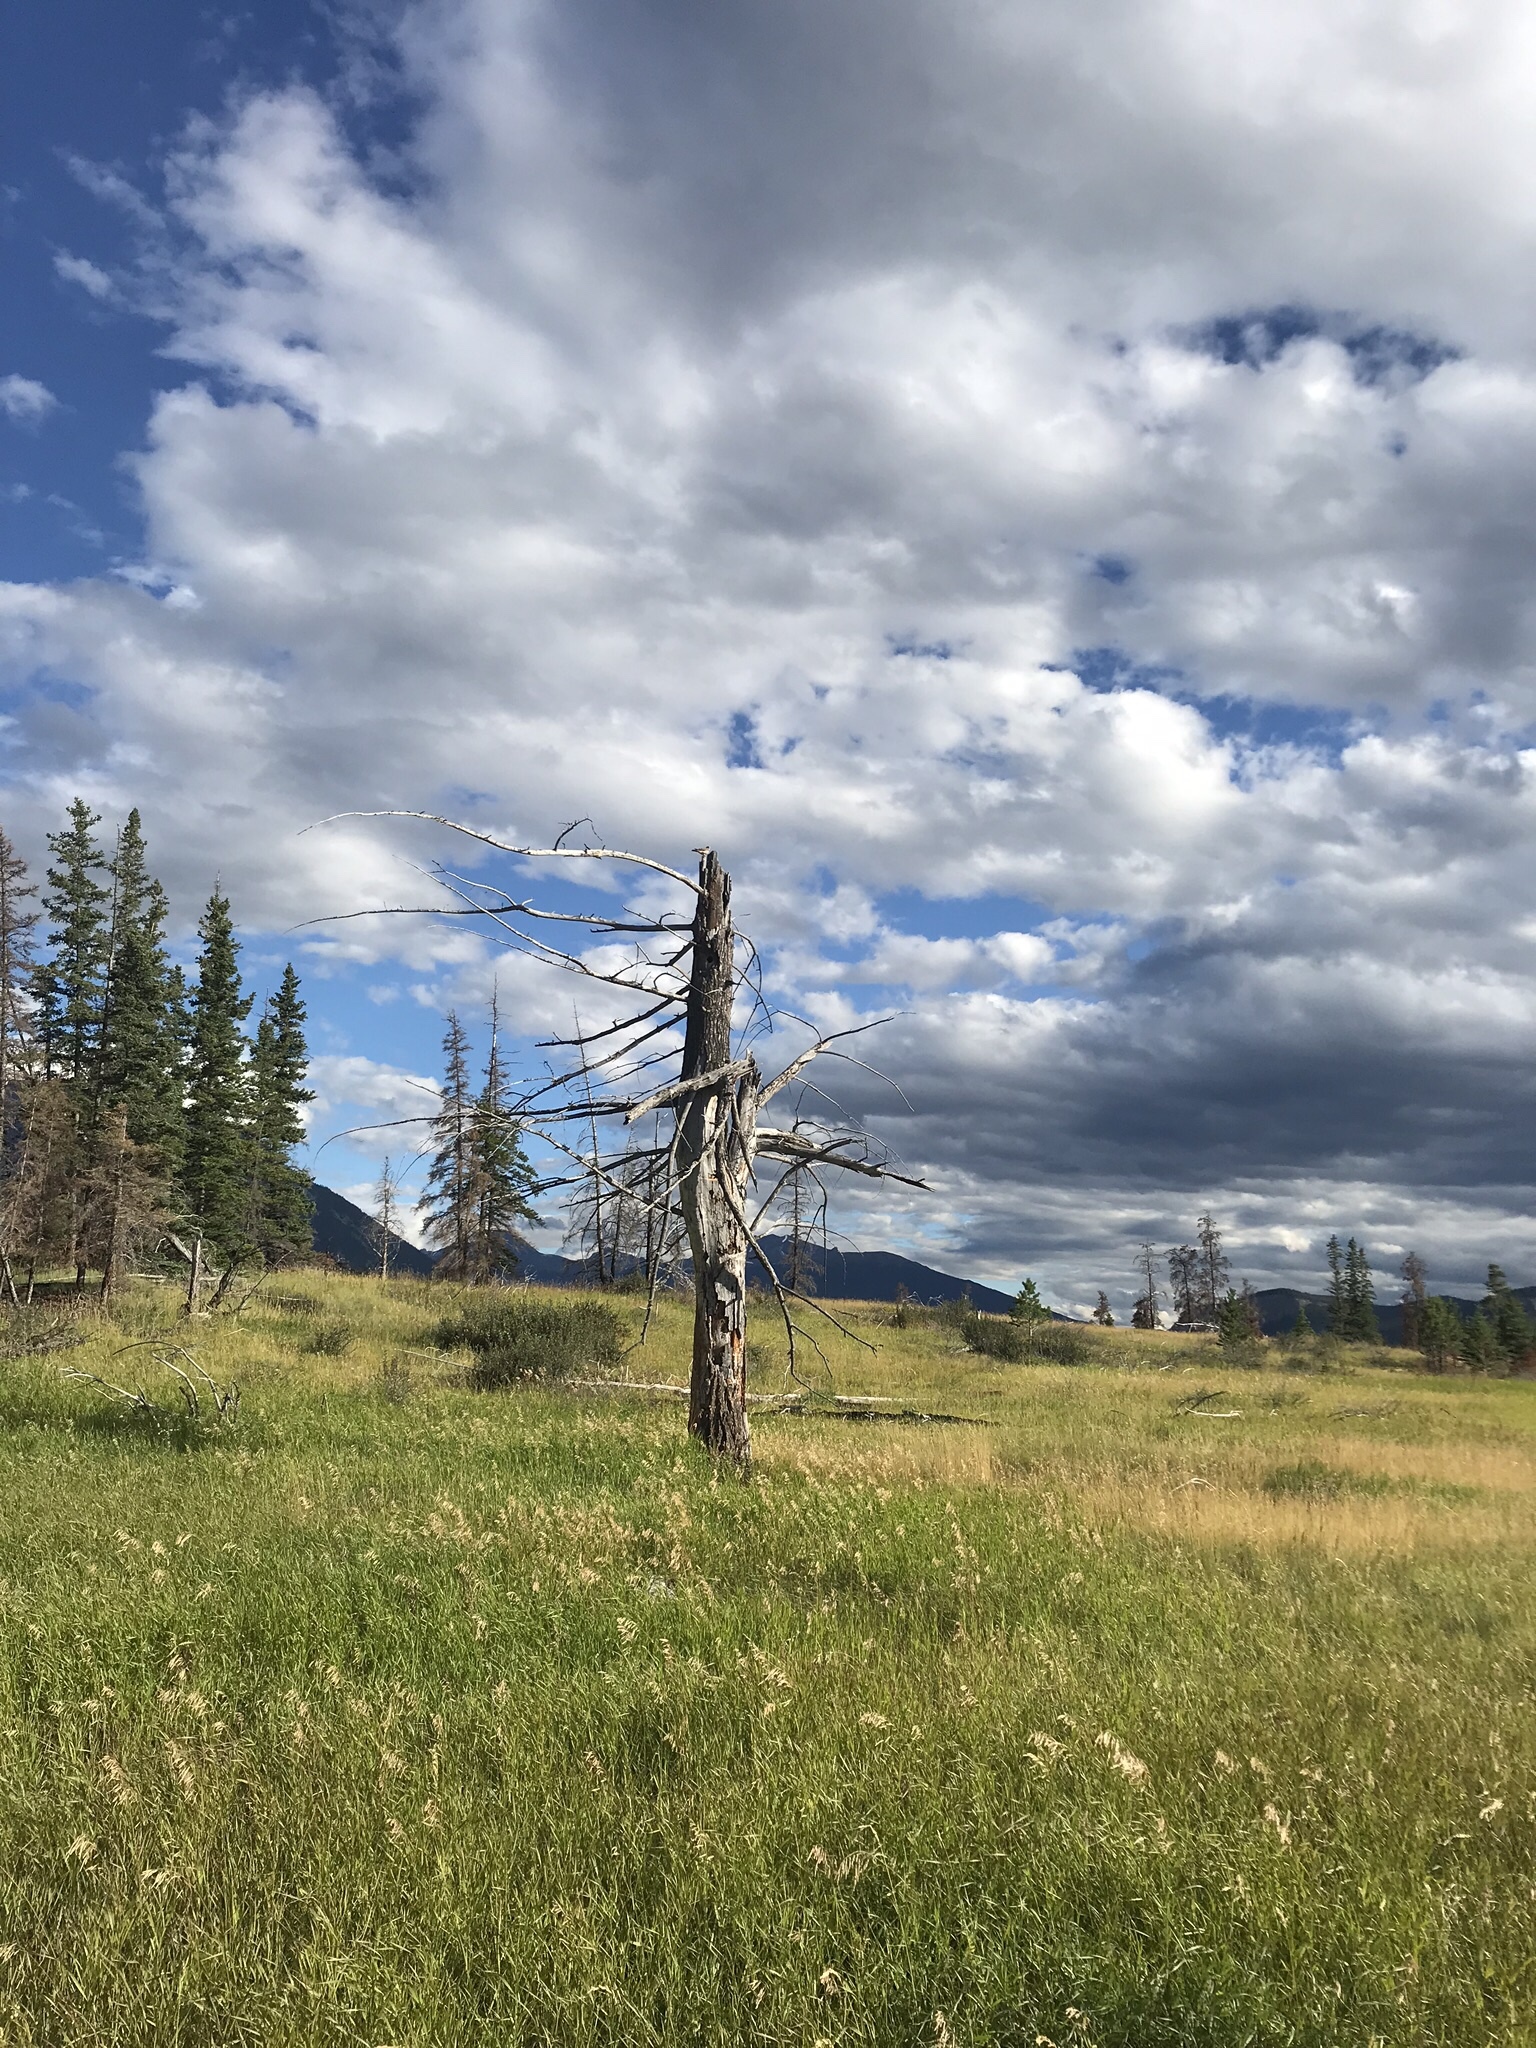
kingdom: Animalia
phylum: Chordata
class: Aves
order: Falconiformes
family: Falconidae
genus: Falco
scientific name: Falco sparverius
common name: American kestrel
